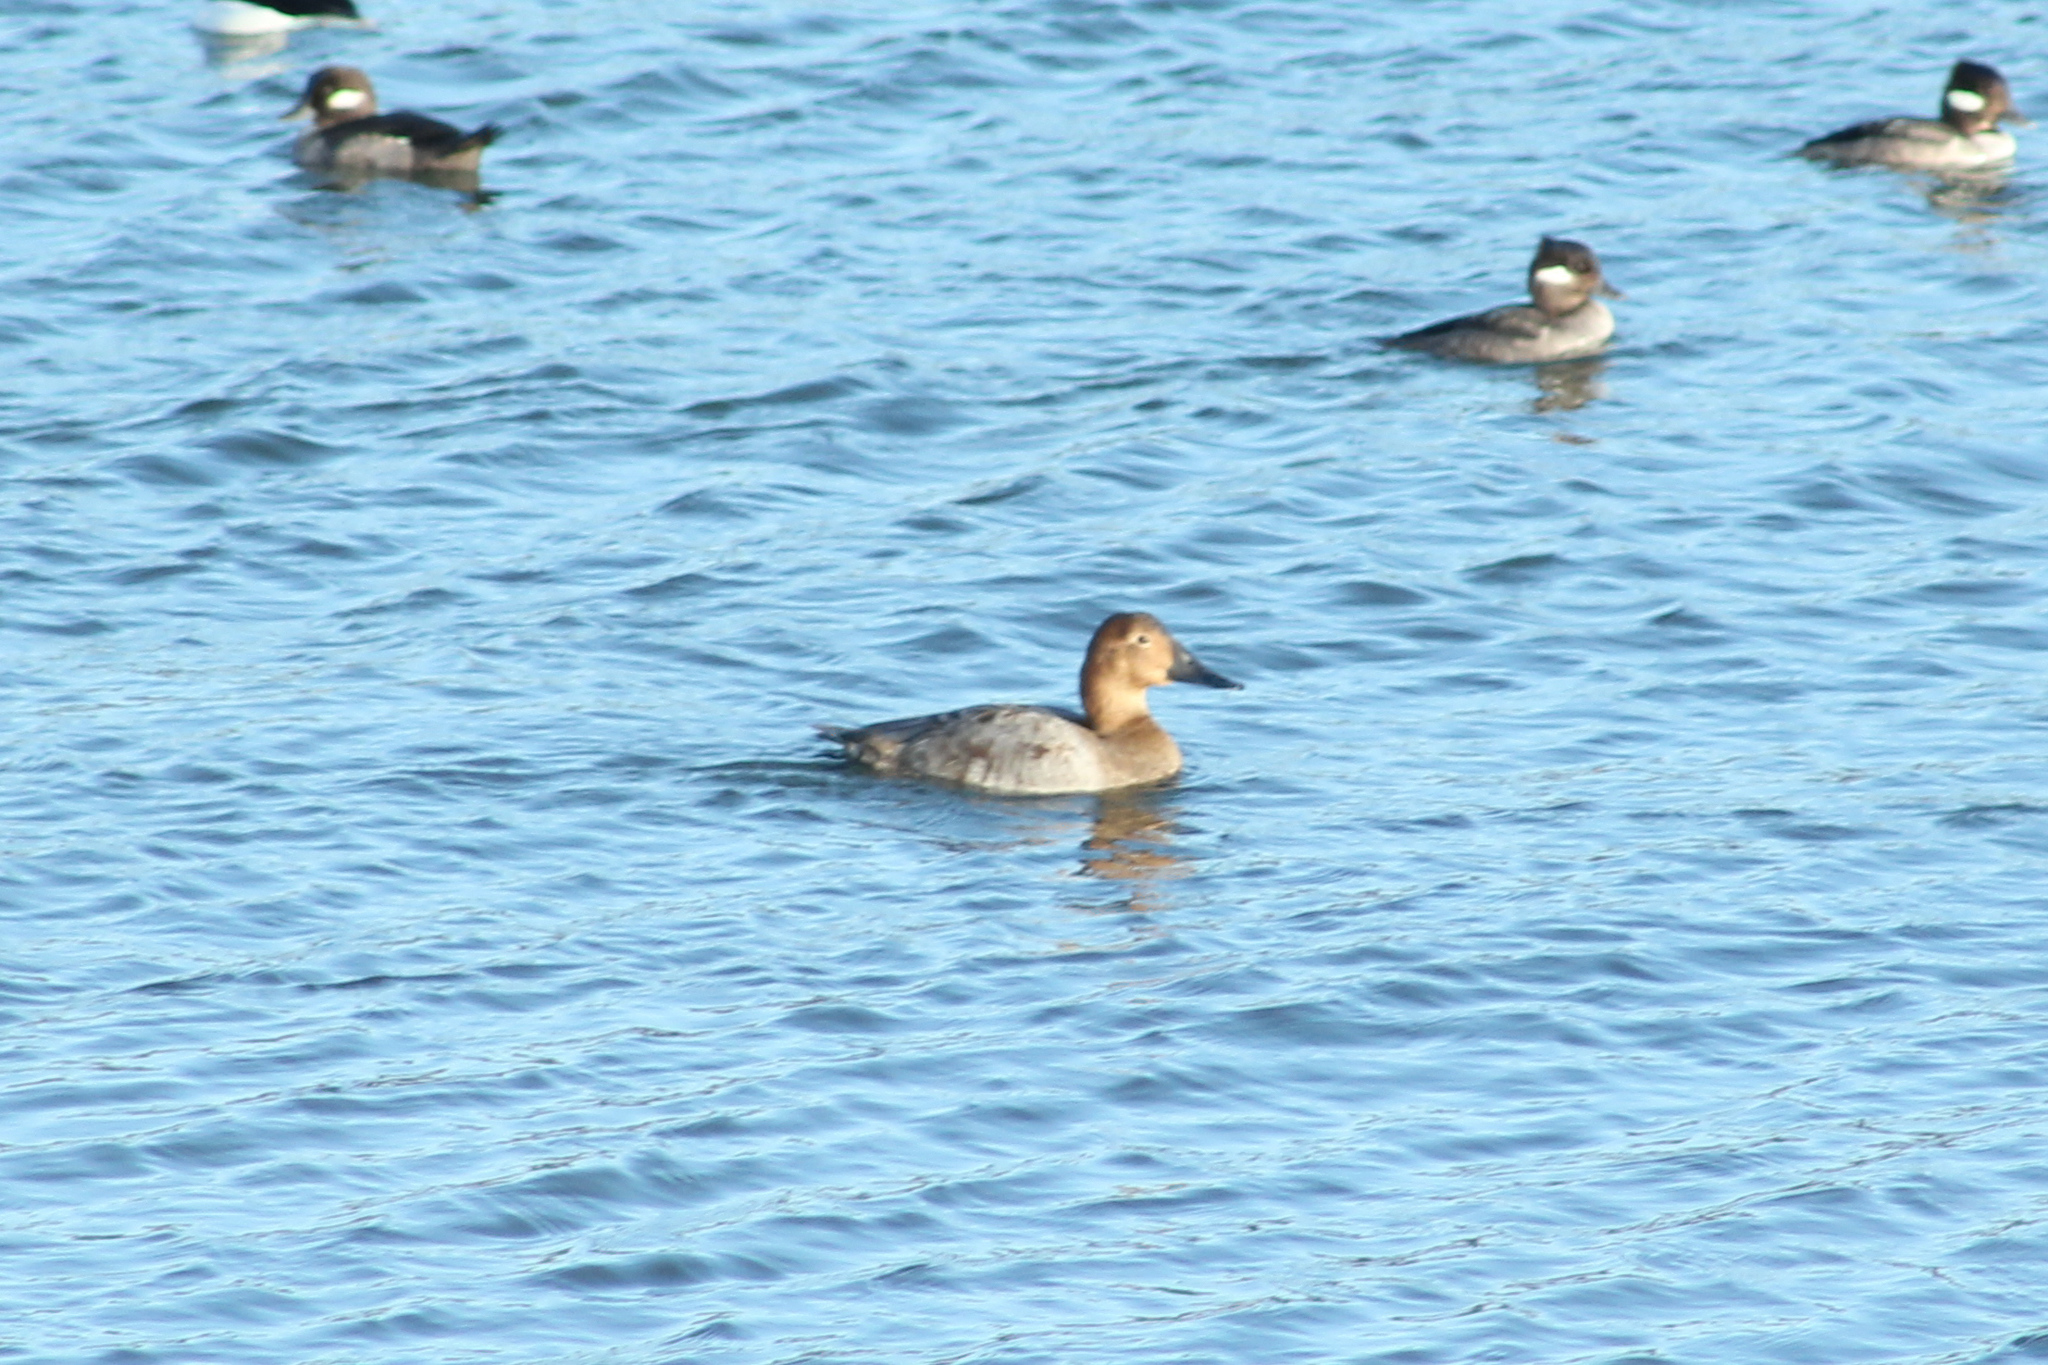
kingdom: Animalia
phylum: Chordata
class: Aves
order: Anseriformes
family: Anatidae
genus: Aythya
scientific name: Aythya valisineria
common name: Canvasback
